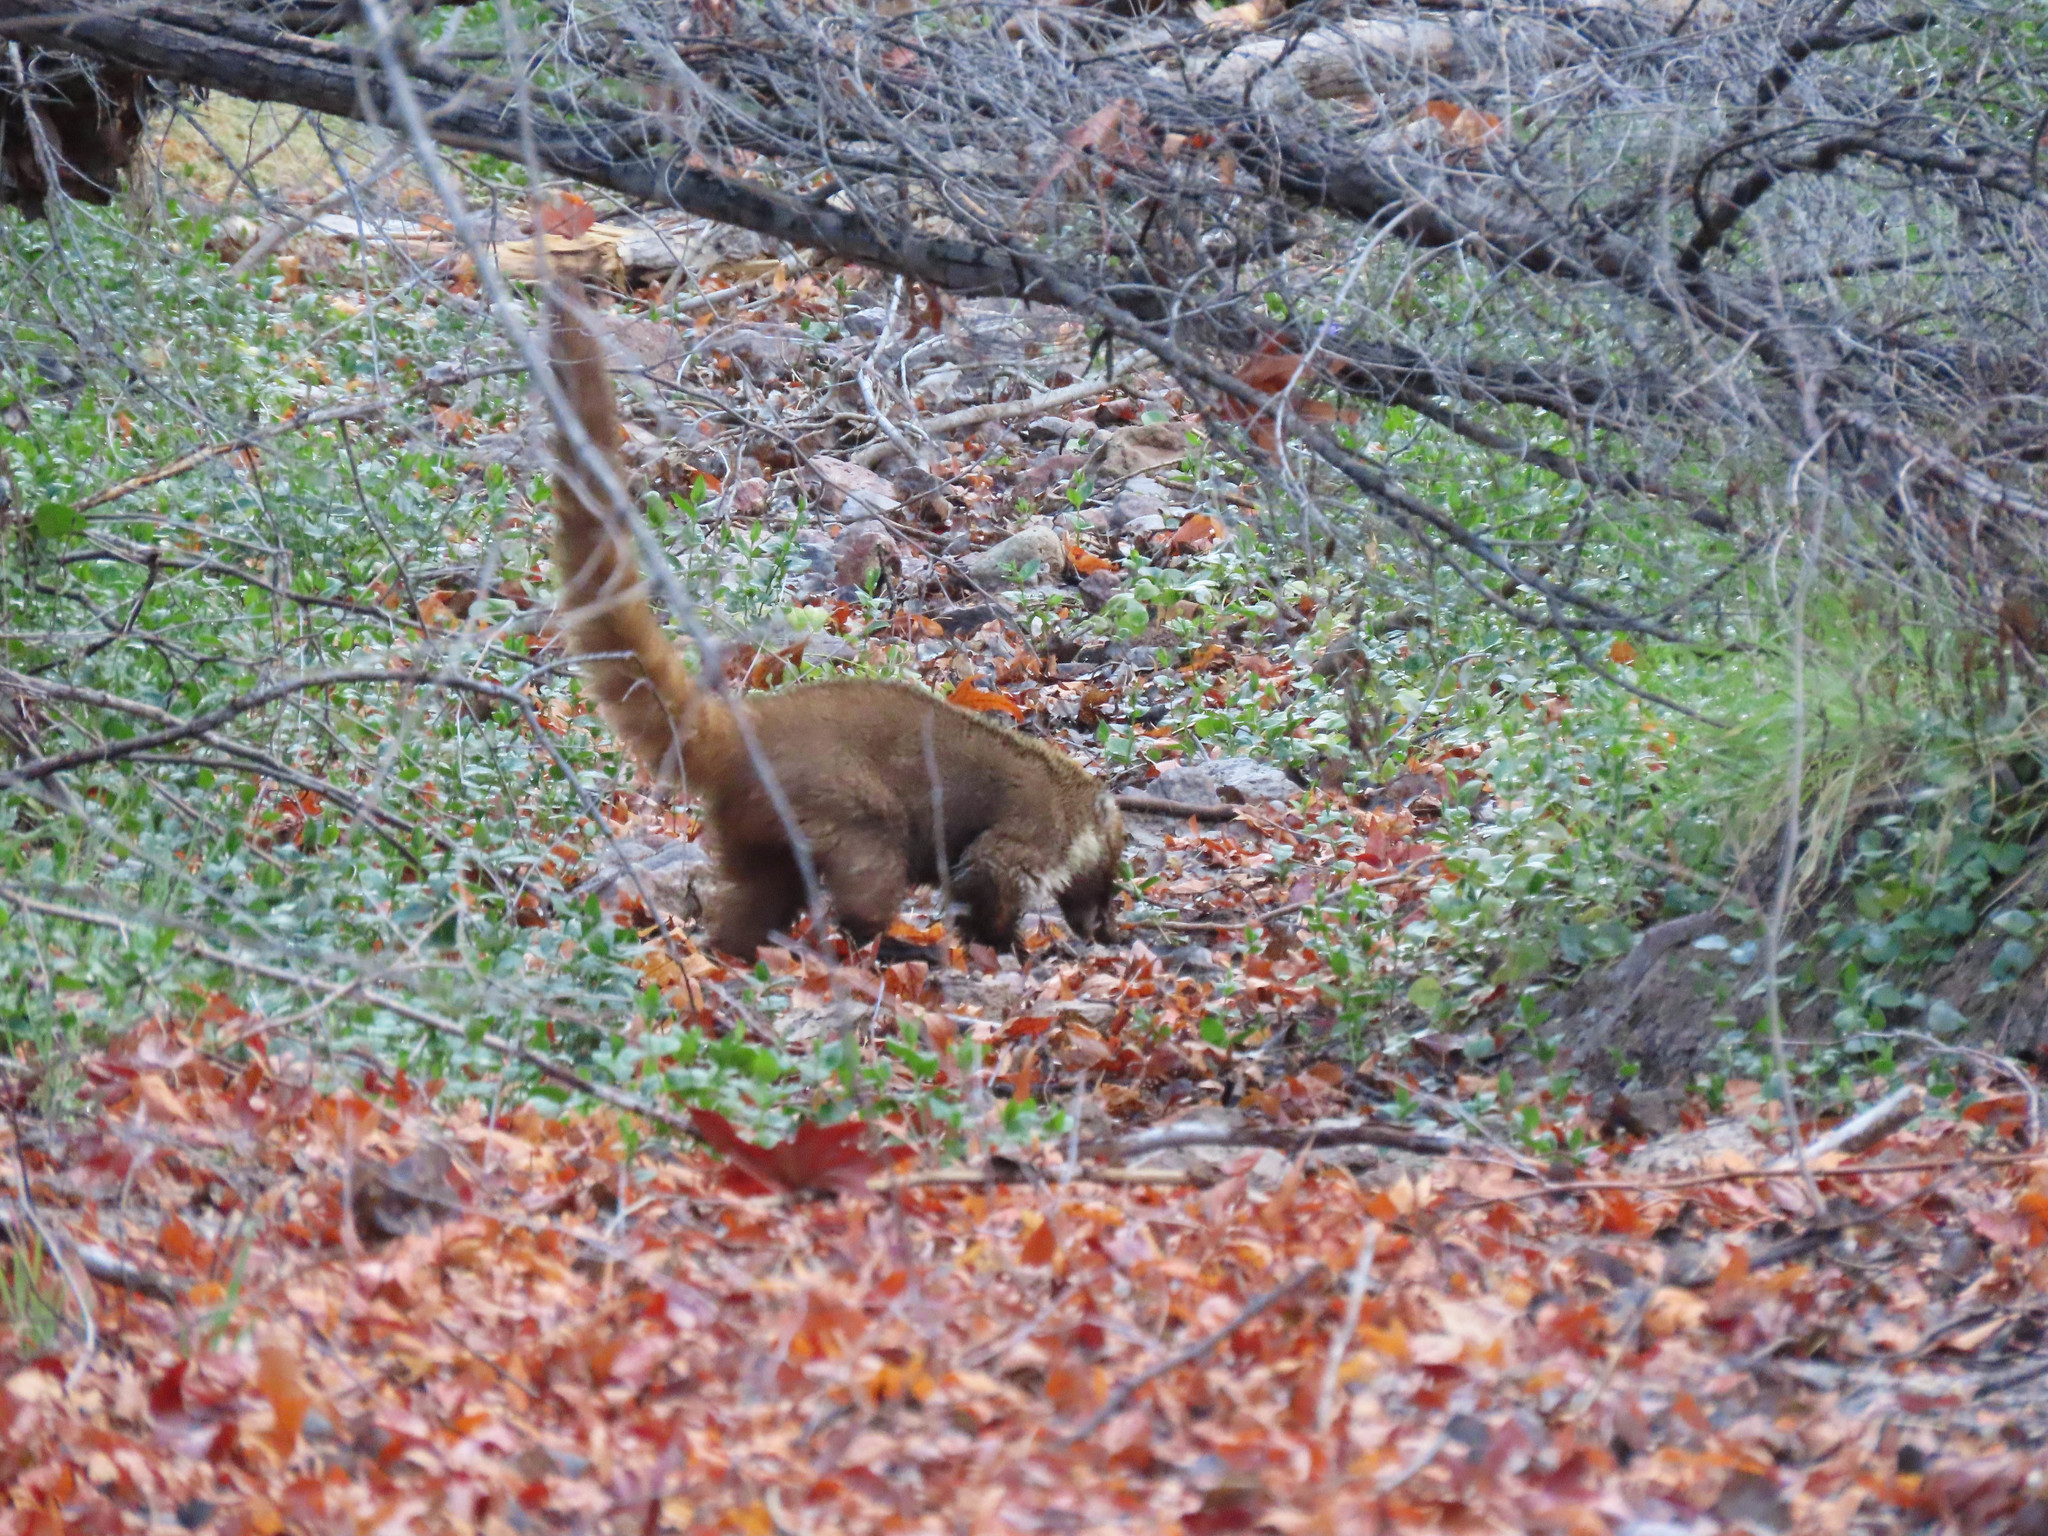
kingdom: Animalia
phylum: Chordata
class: Mammalia
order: Carnivora
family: Procyonidae
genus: Nasua
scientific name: Nasua narica
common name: White-nosed coati
